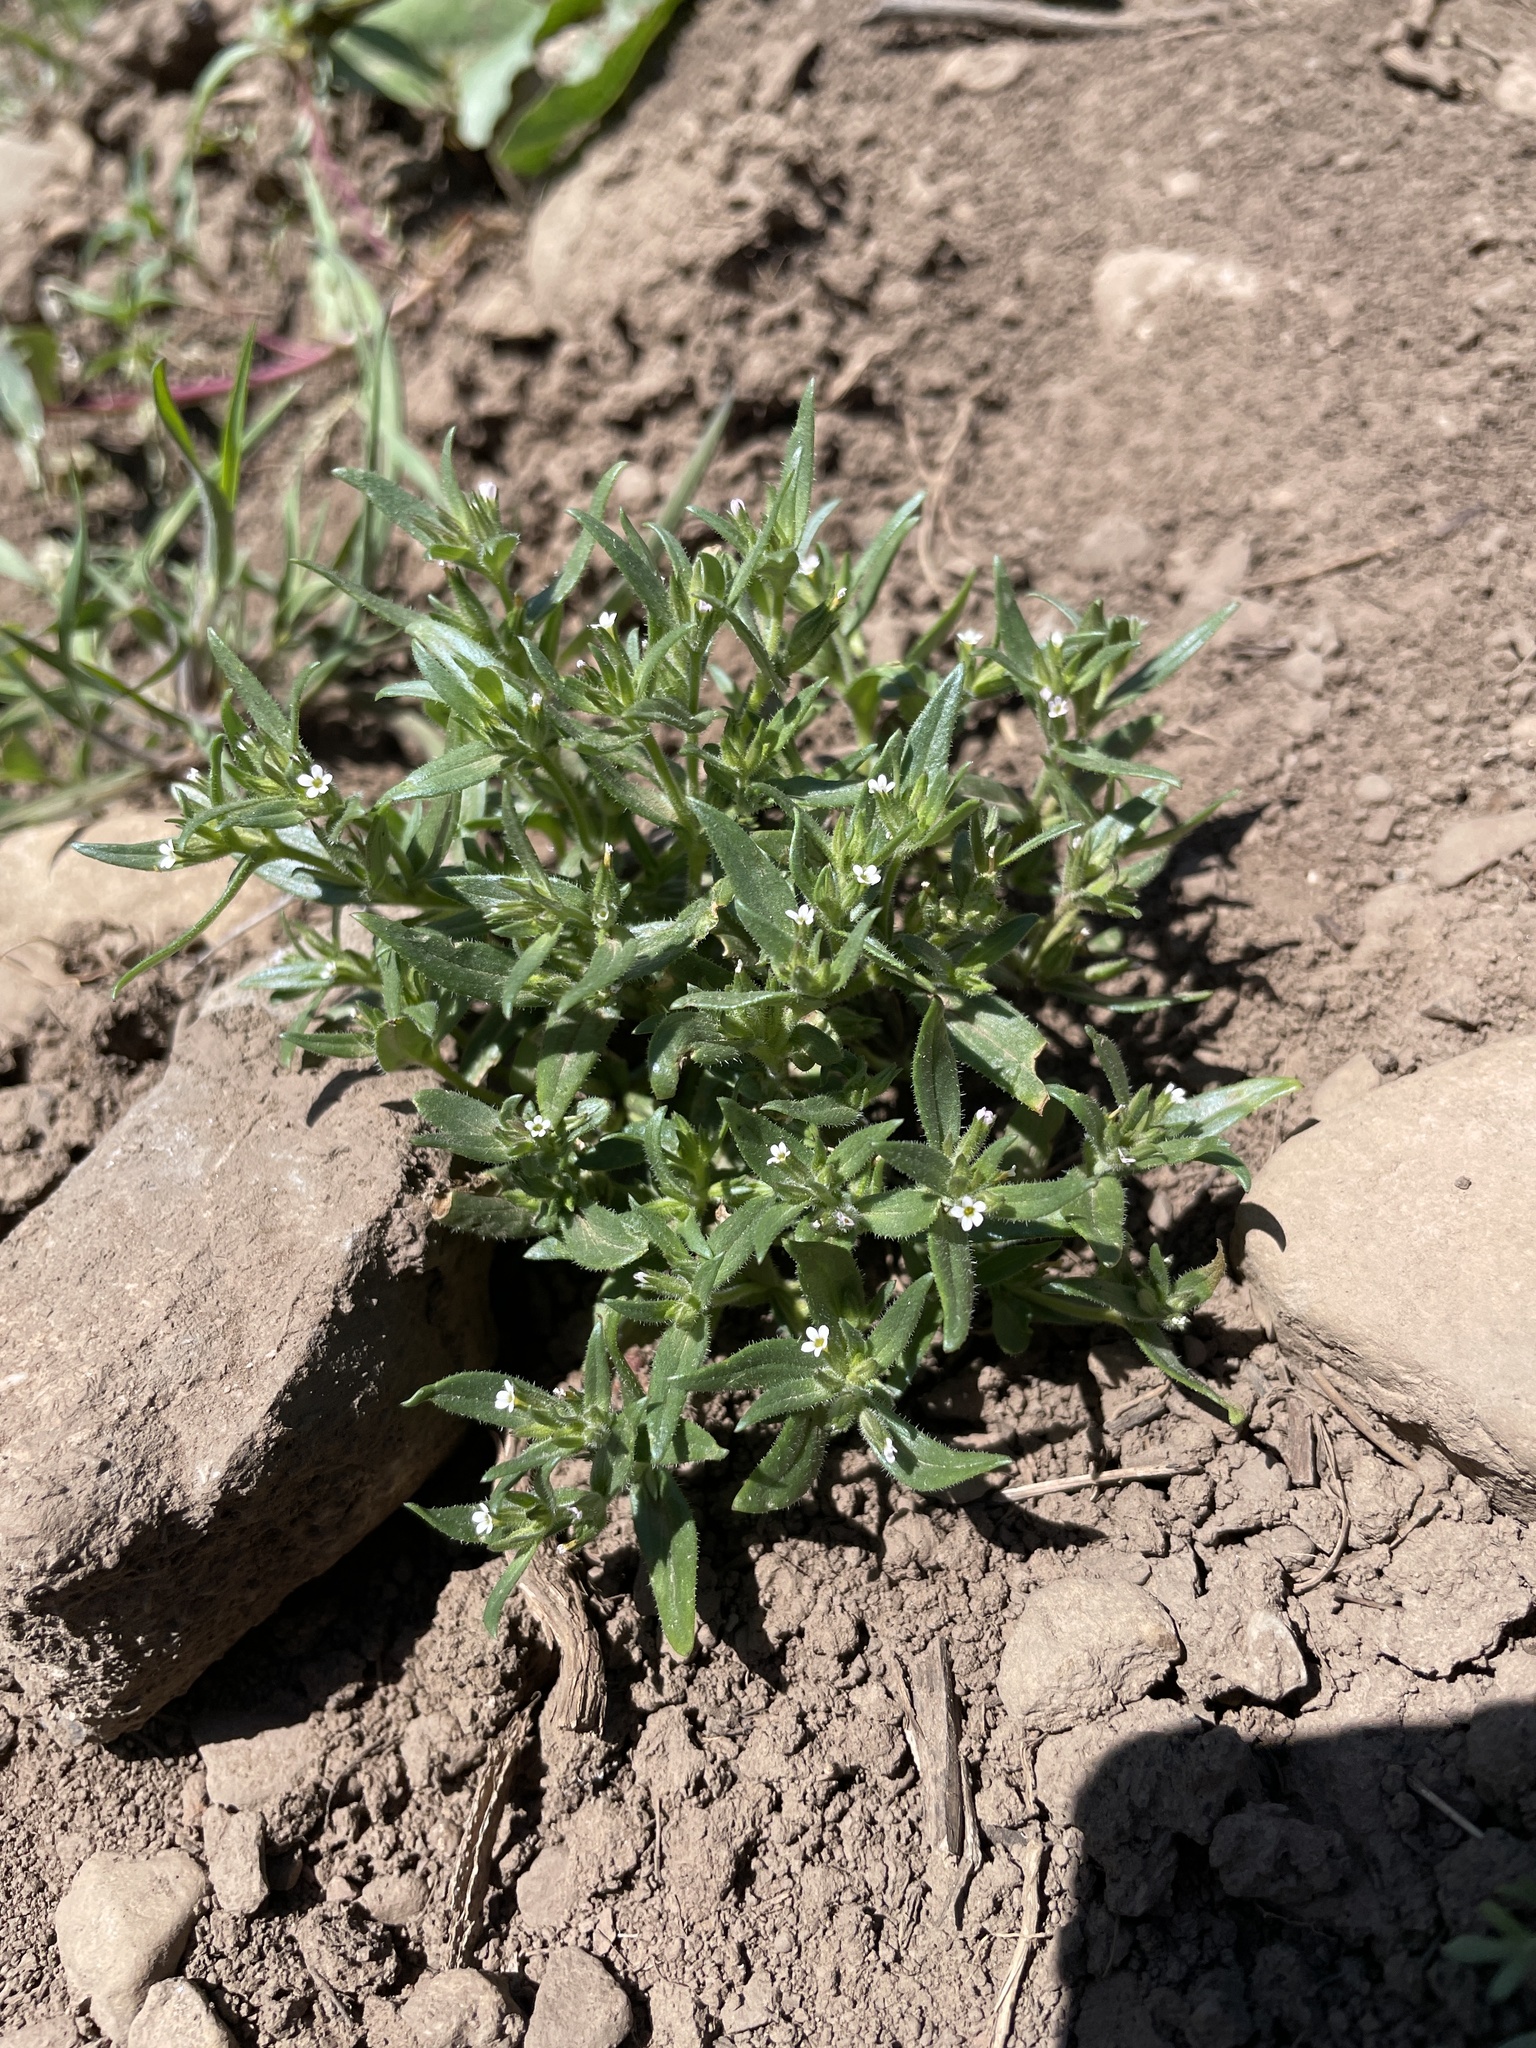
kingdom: Plantae
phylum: Tracheophyta
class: Magnoliopsida
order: Ericales
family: Polemoniaceae
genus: Phlox
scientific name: Phlox gracilis
